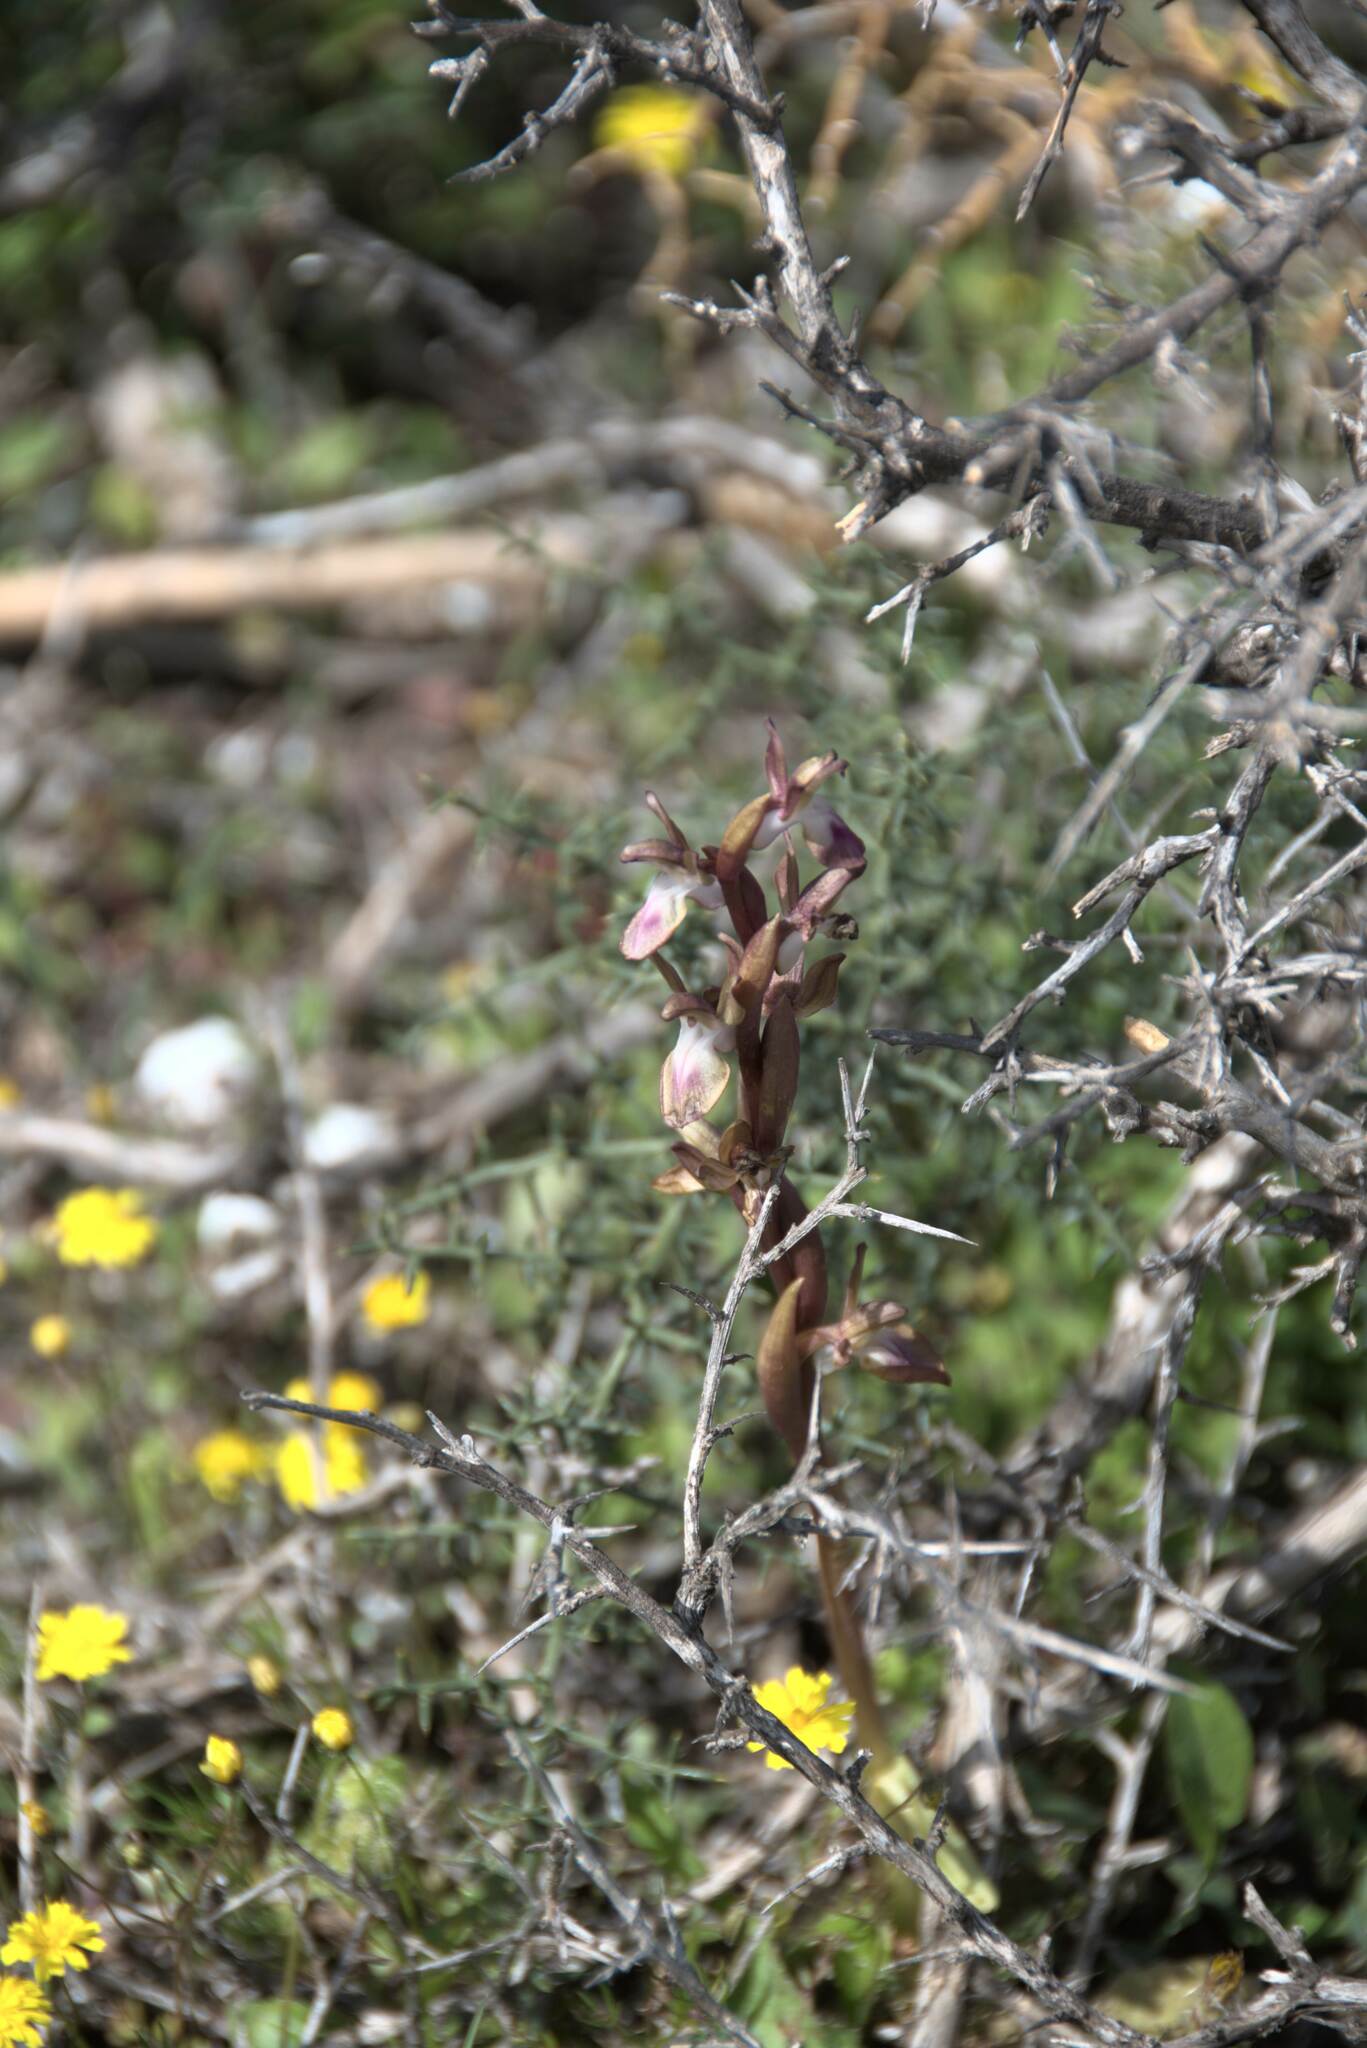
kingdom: Plantae
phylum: Tracheophyta
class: Liliopsida
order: Asparagales
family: Orchidaceae
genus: Anacamptis
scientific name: Anacamptis collina
